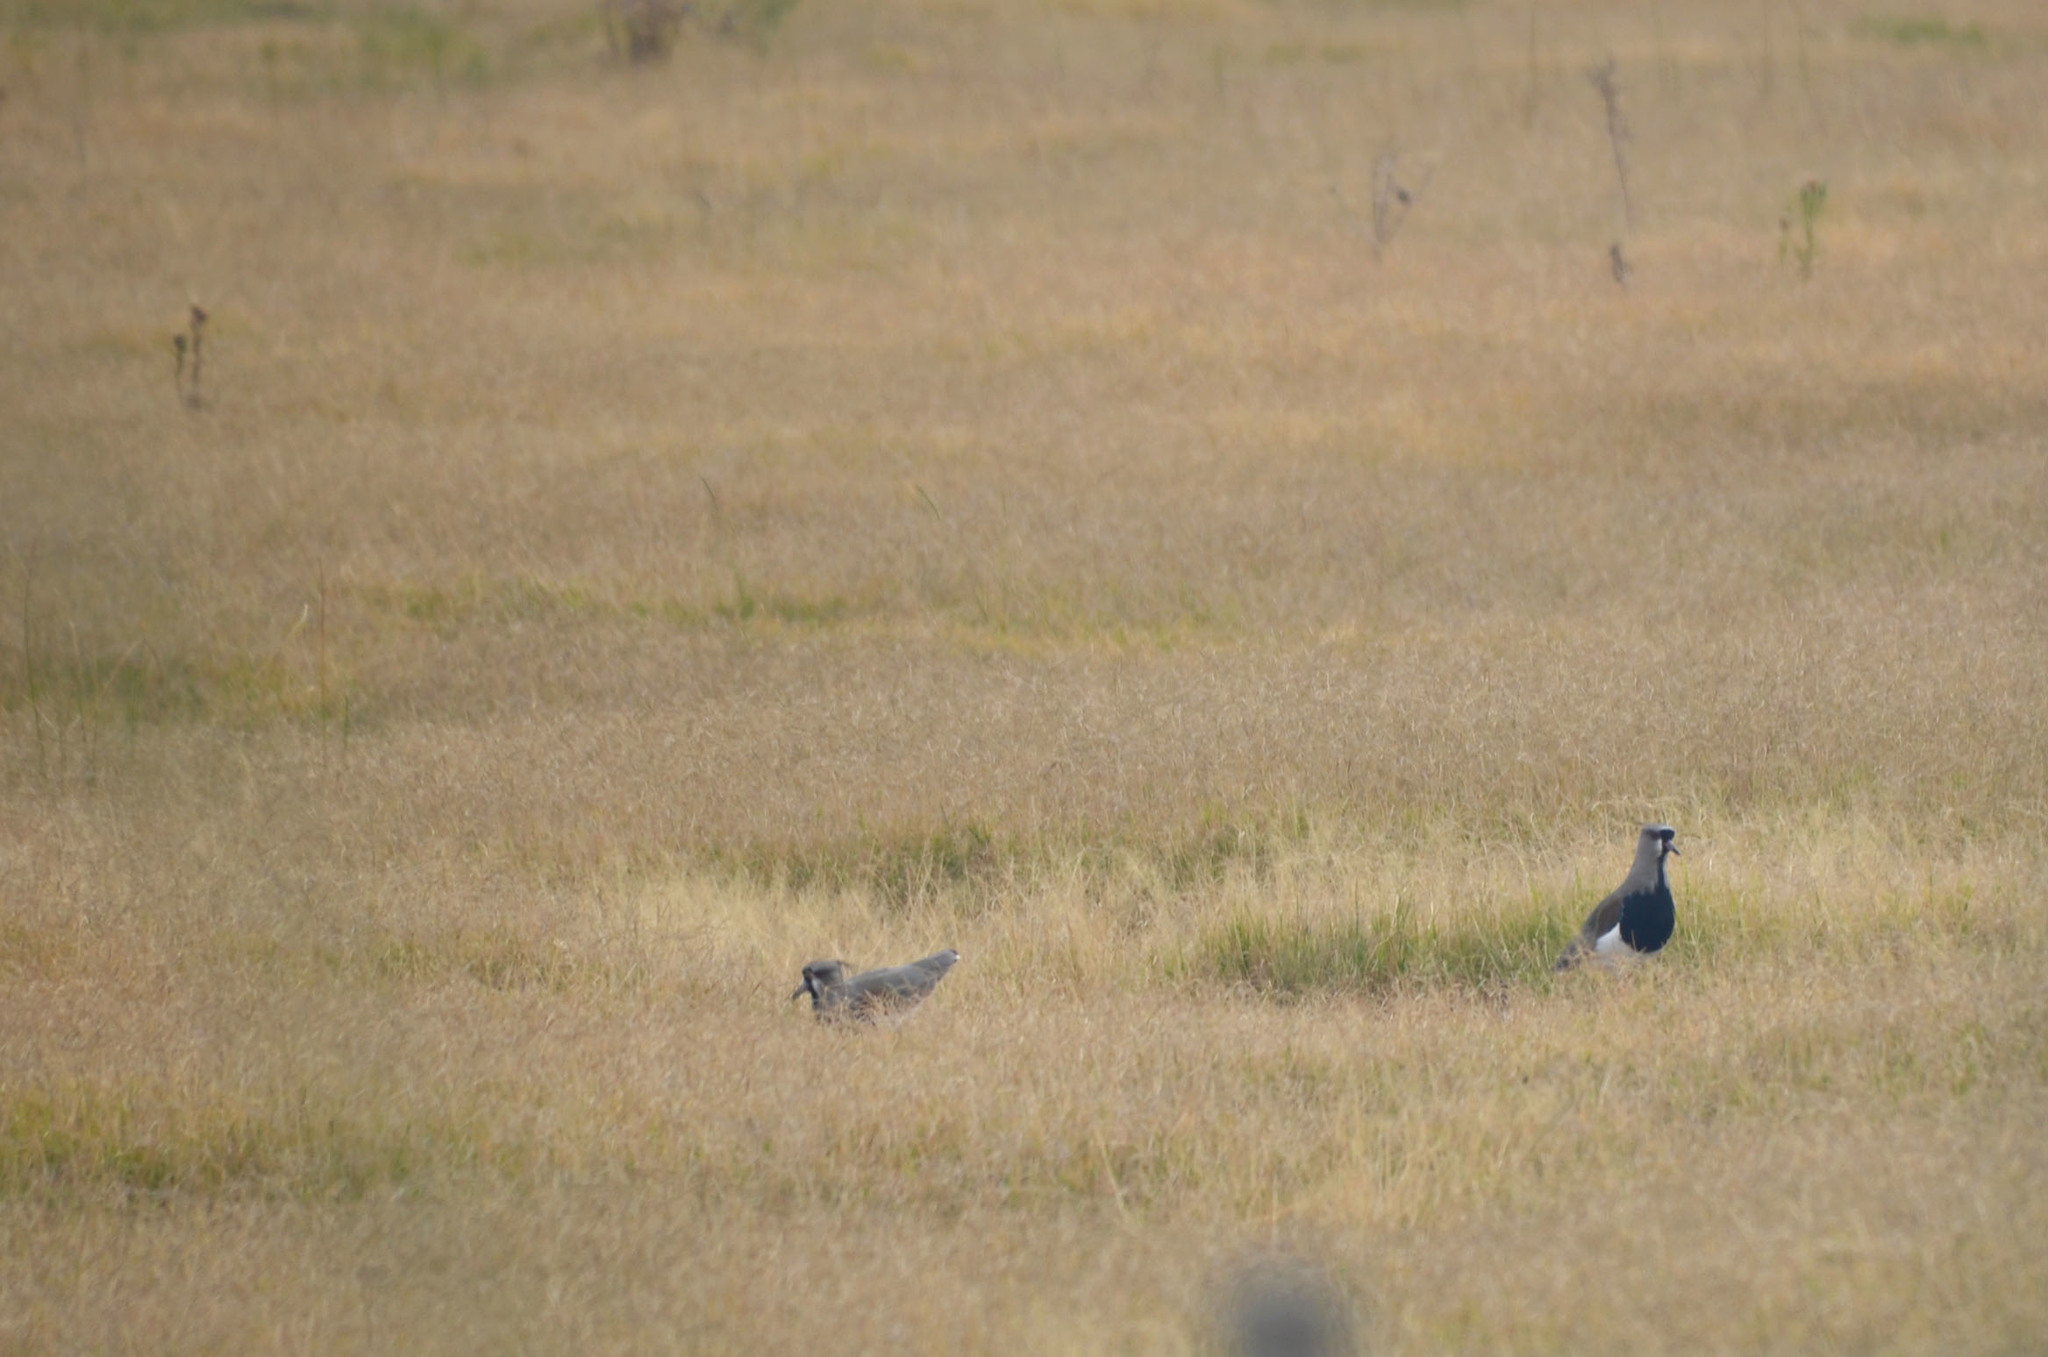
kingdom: Animalia
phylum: Chordata
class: Aves
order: Charadriiformes
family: Charadriidae
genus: Vanellus
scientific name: Vanellus chilensis
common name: Southern lapwing
